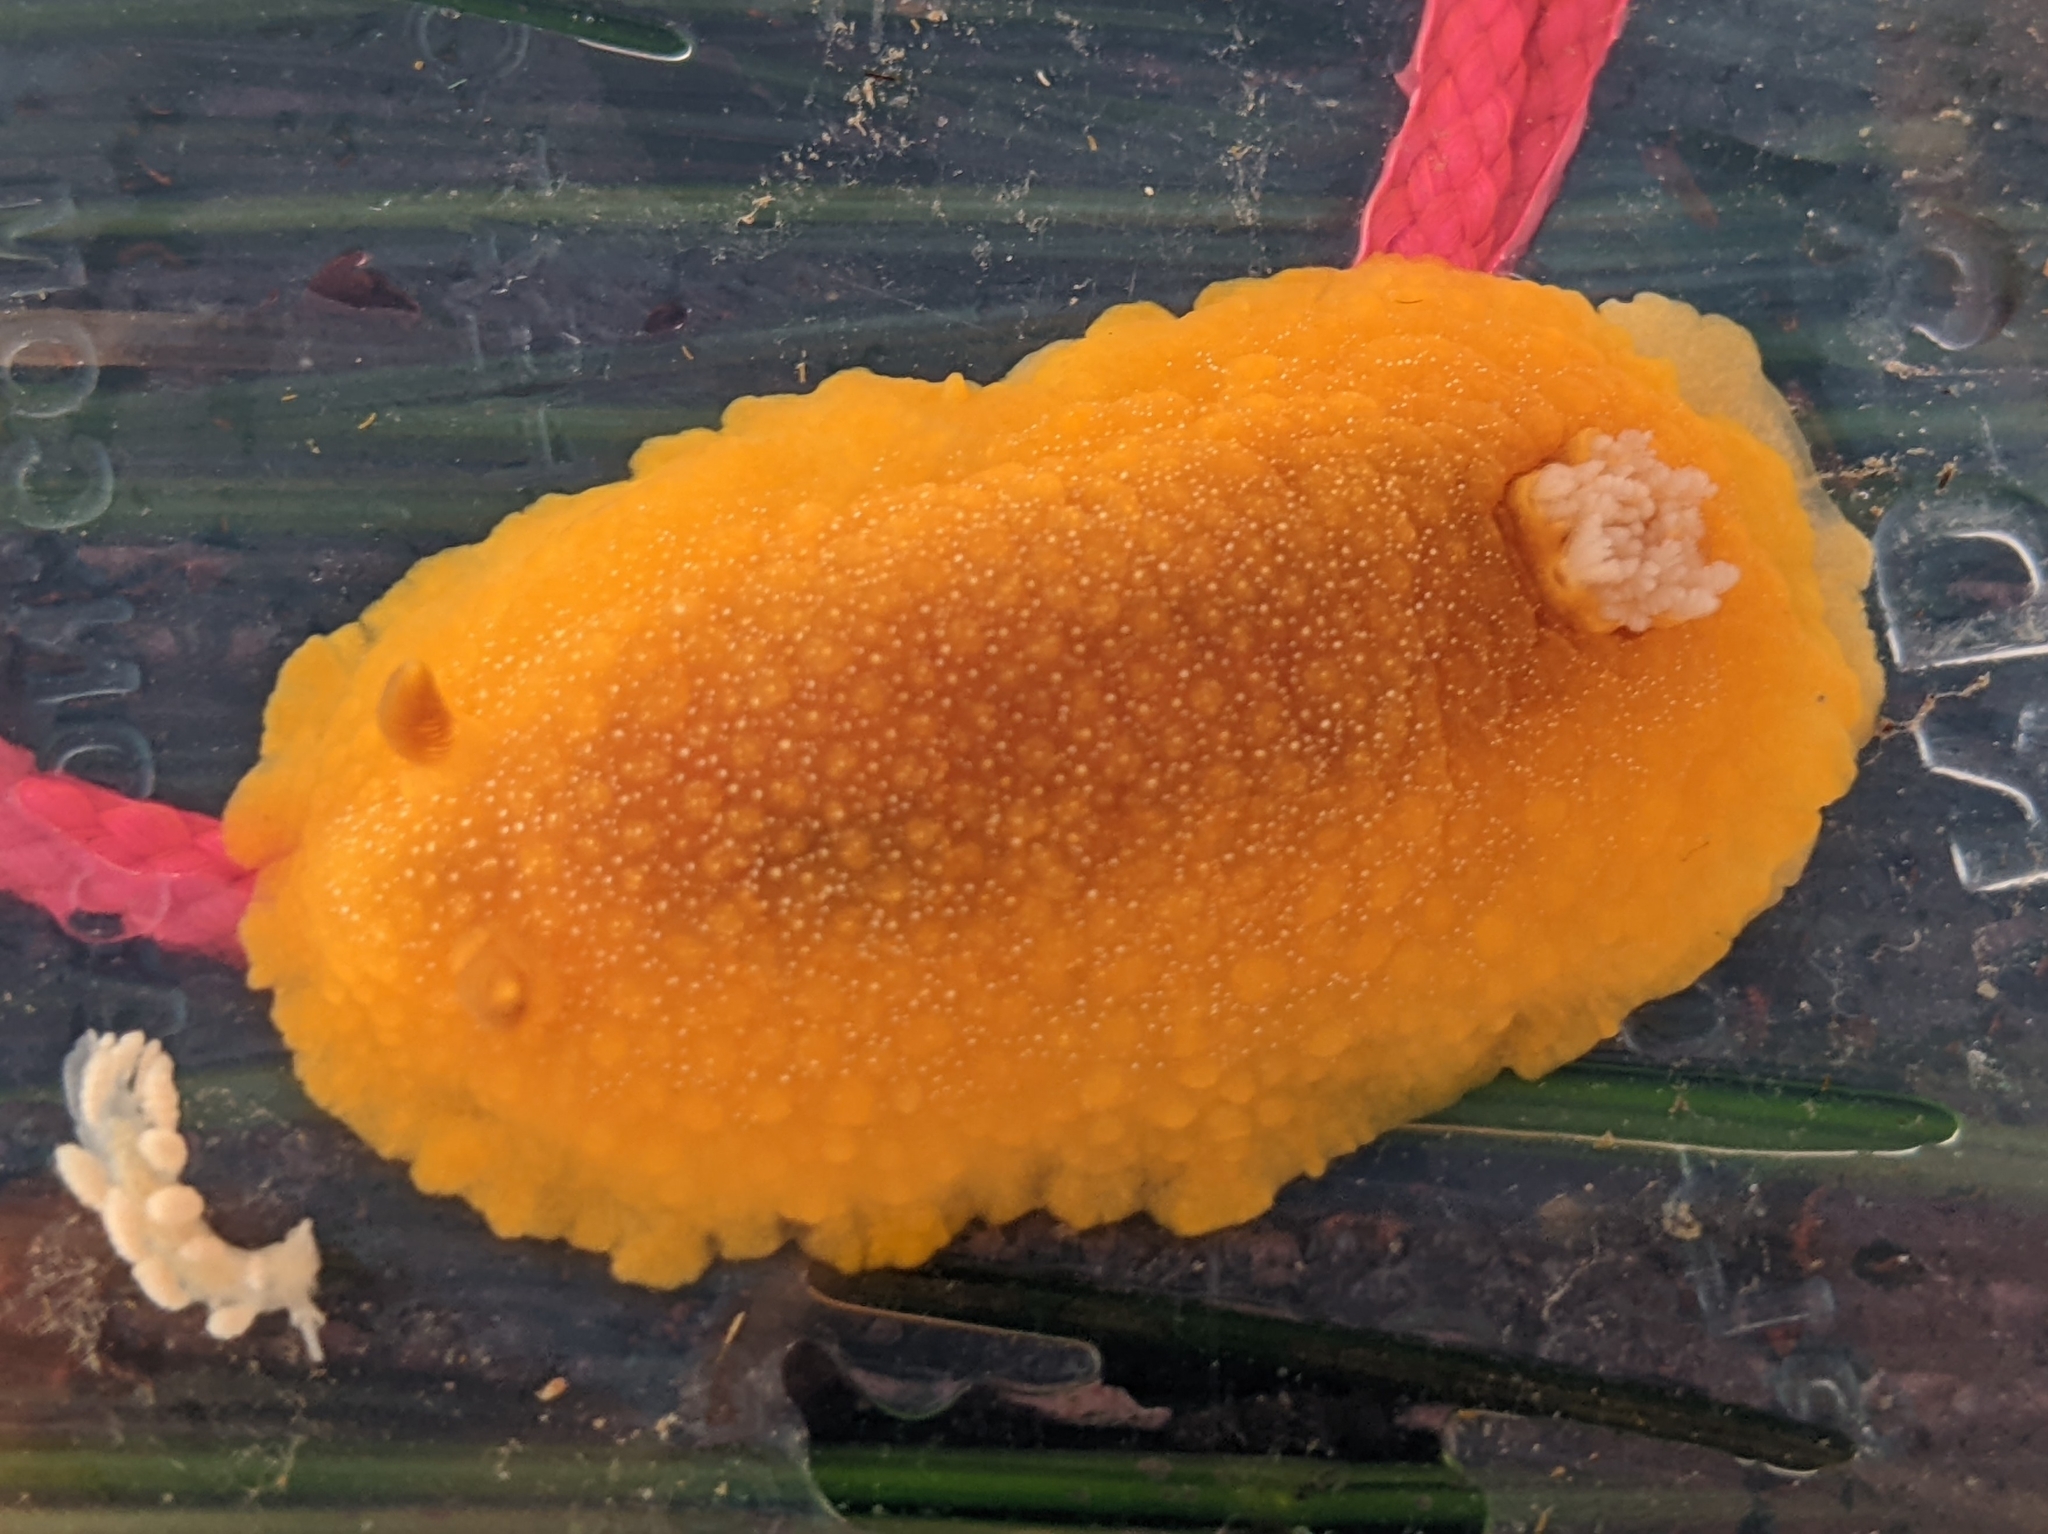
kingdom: Animalia
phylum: Mollusca
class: Gastropoda
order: Nudibranchia
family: Dendrodorididae
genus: Doriopsilla
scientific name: Doriopsilla albopunctata
